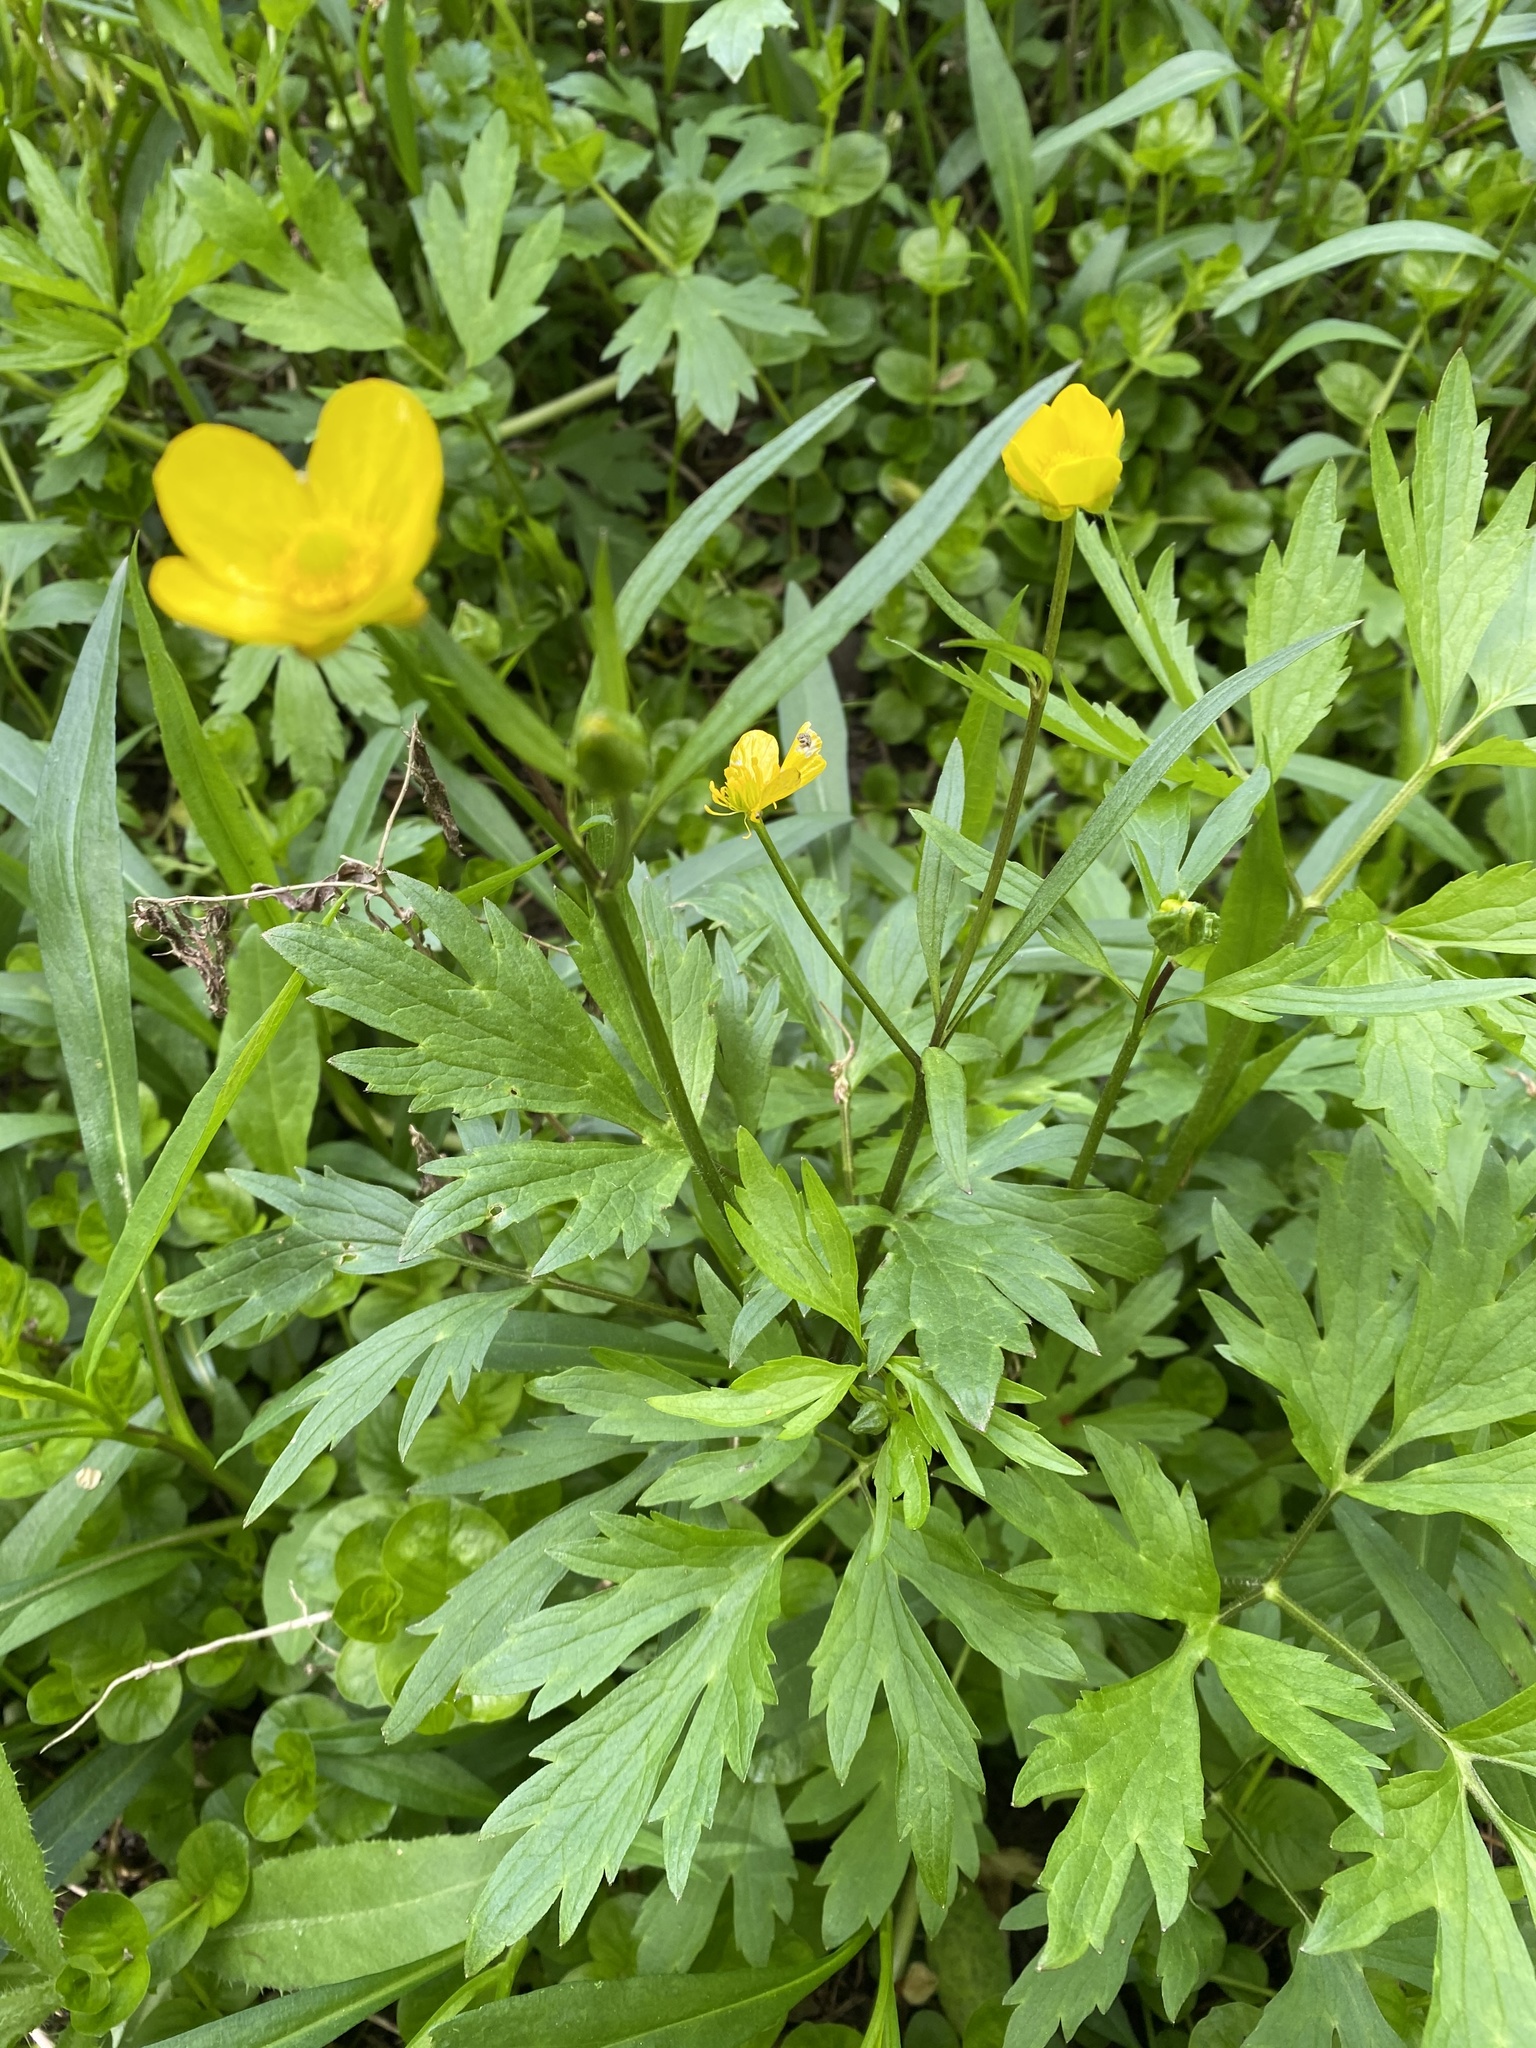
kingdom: Plantae
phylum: Tracheophyta
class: Magnoliopsida
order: Ranunculales
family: Ranunculaceae
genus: Ranunculus
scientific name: Ranunculus hispidus
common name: Bristly buttercup
